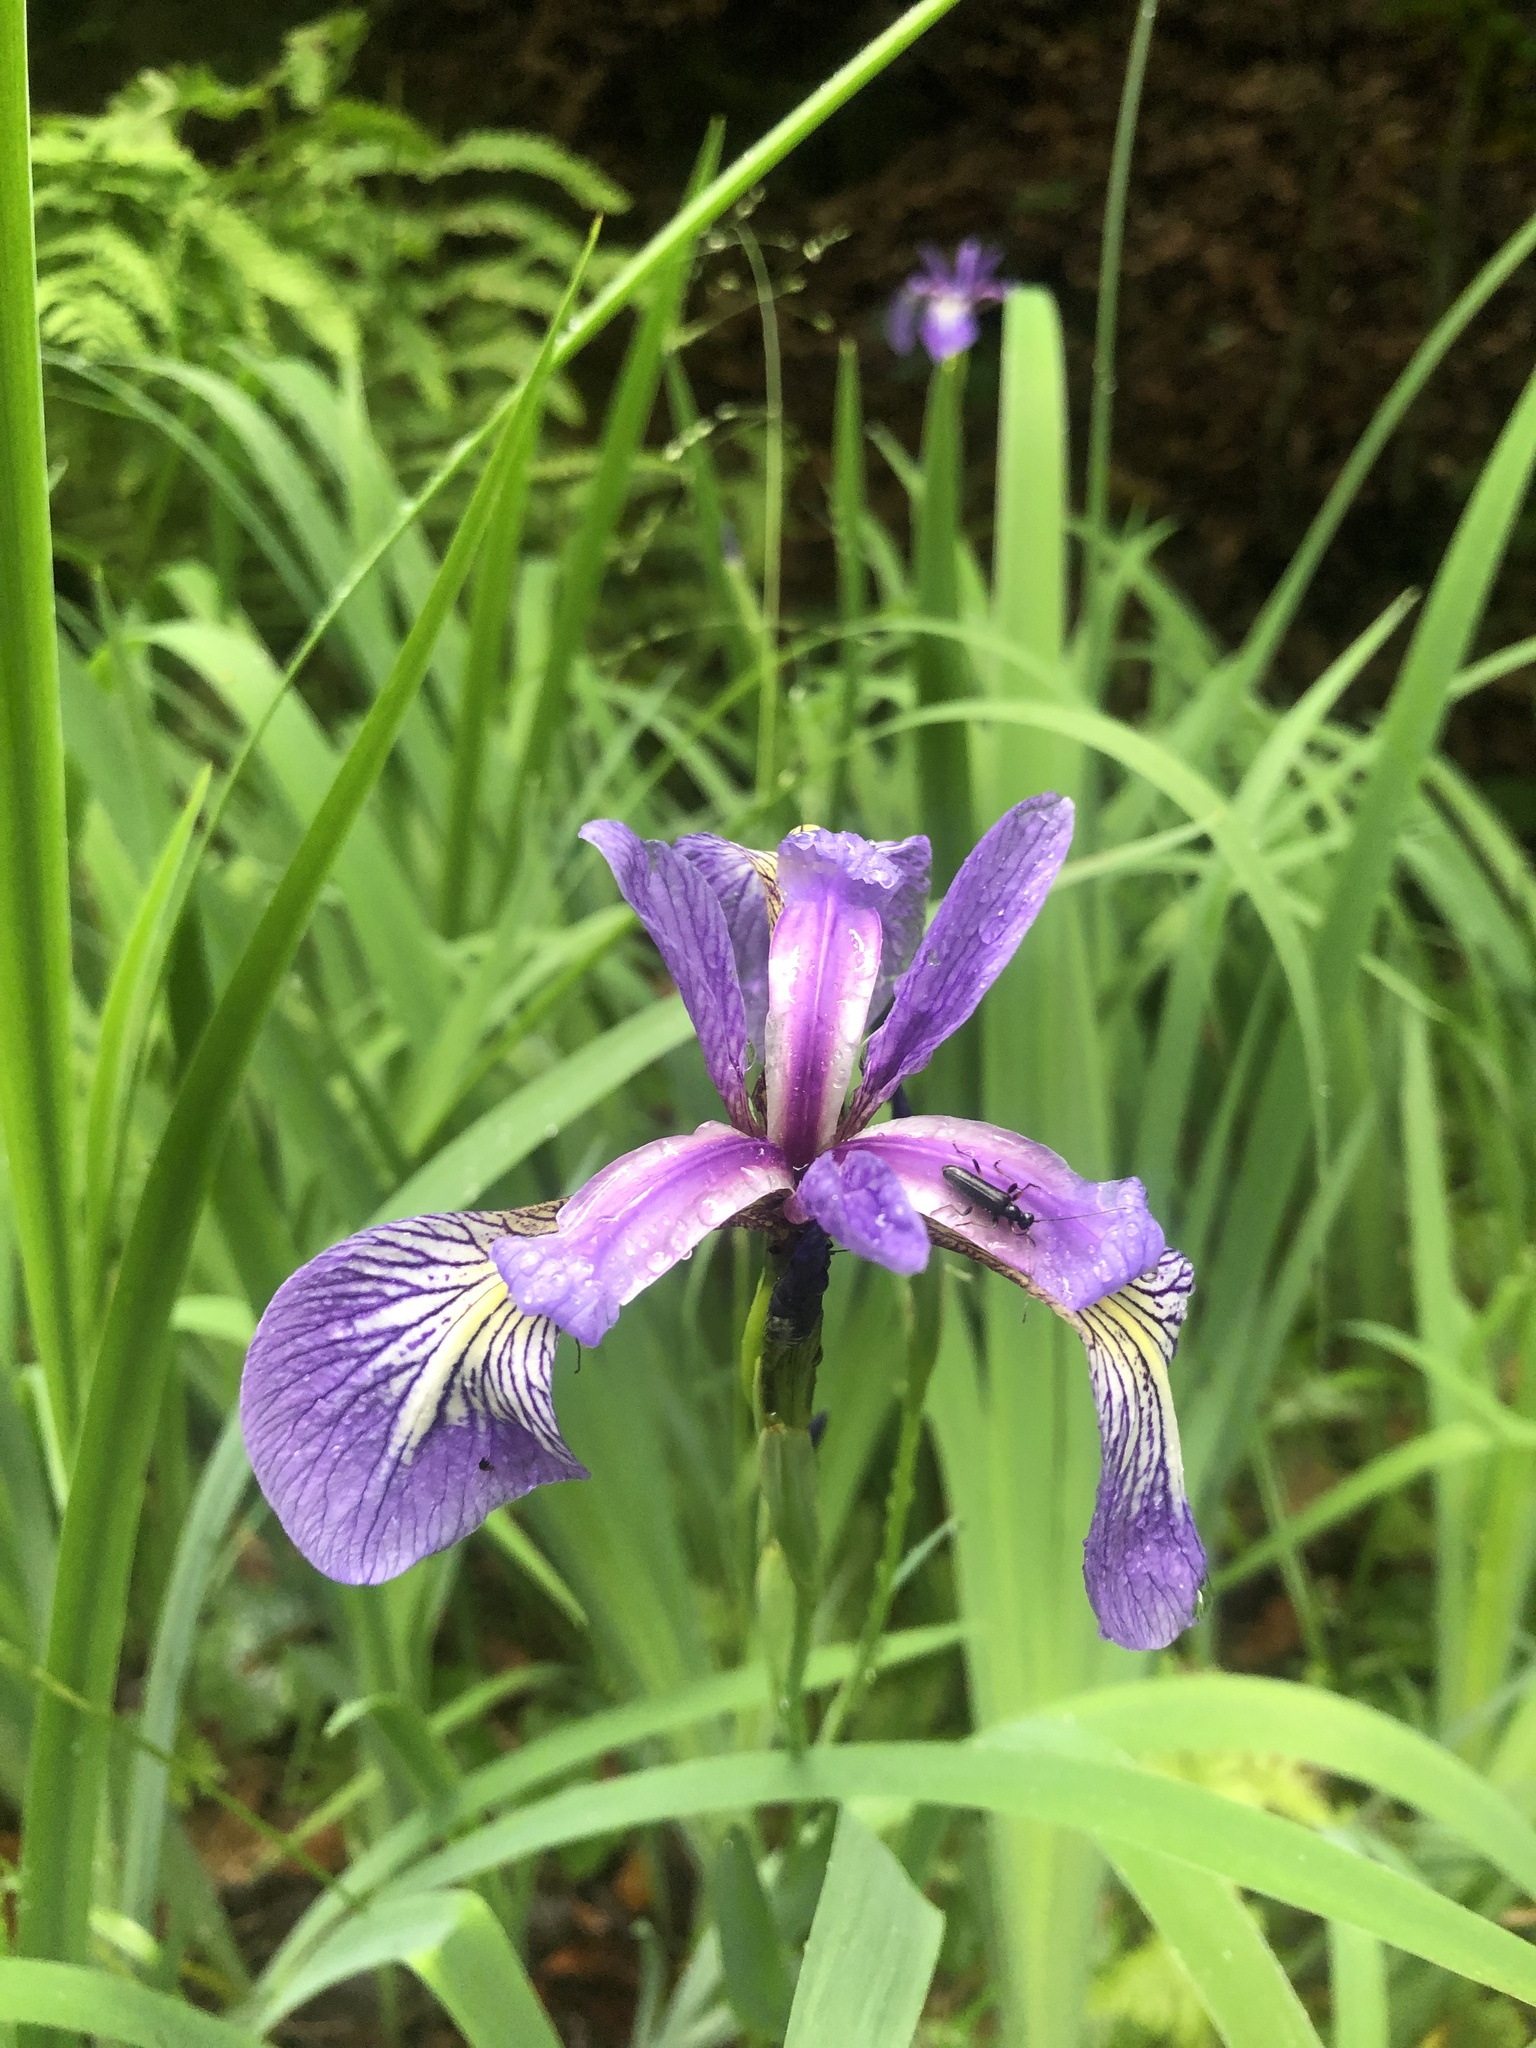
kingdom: Plantae
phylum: Tracheophyta
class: Liliopsida
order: Asparagales
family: Iridaceae
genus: Iris
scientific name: Iris versicolor
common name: Purple iris
